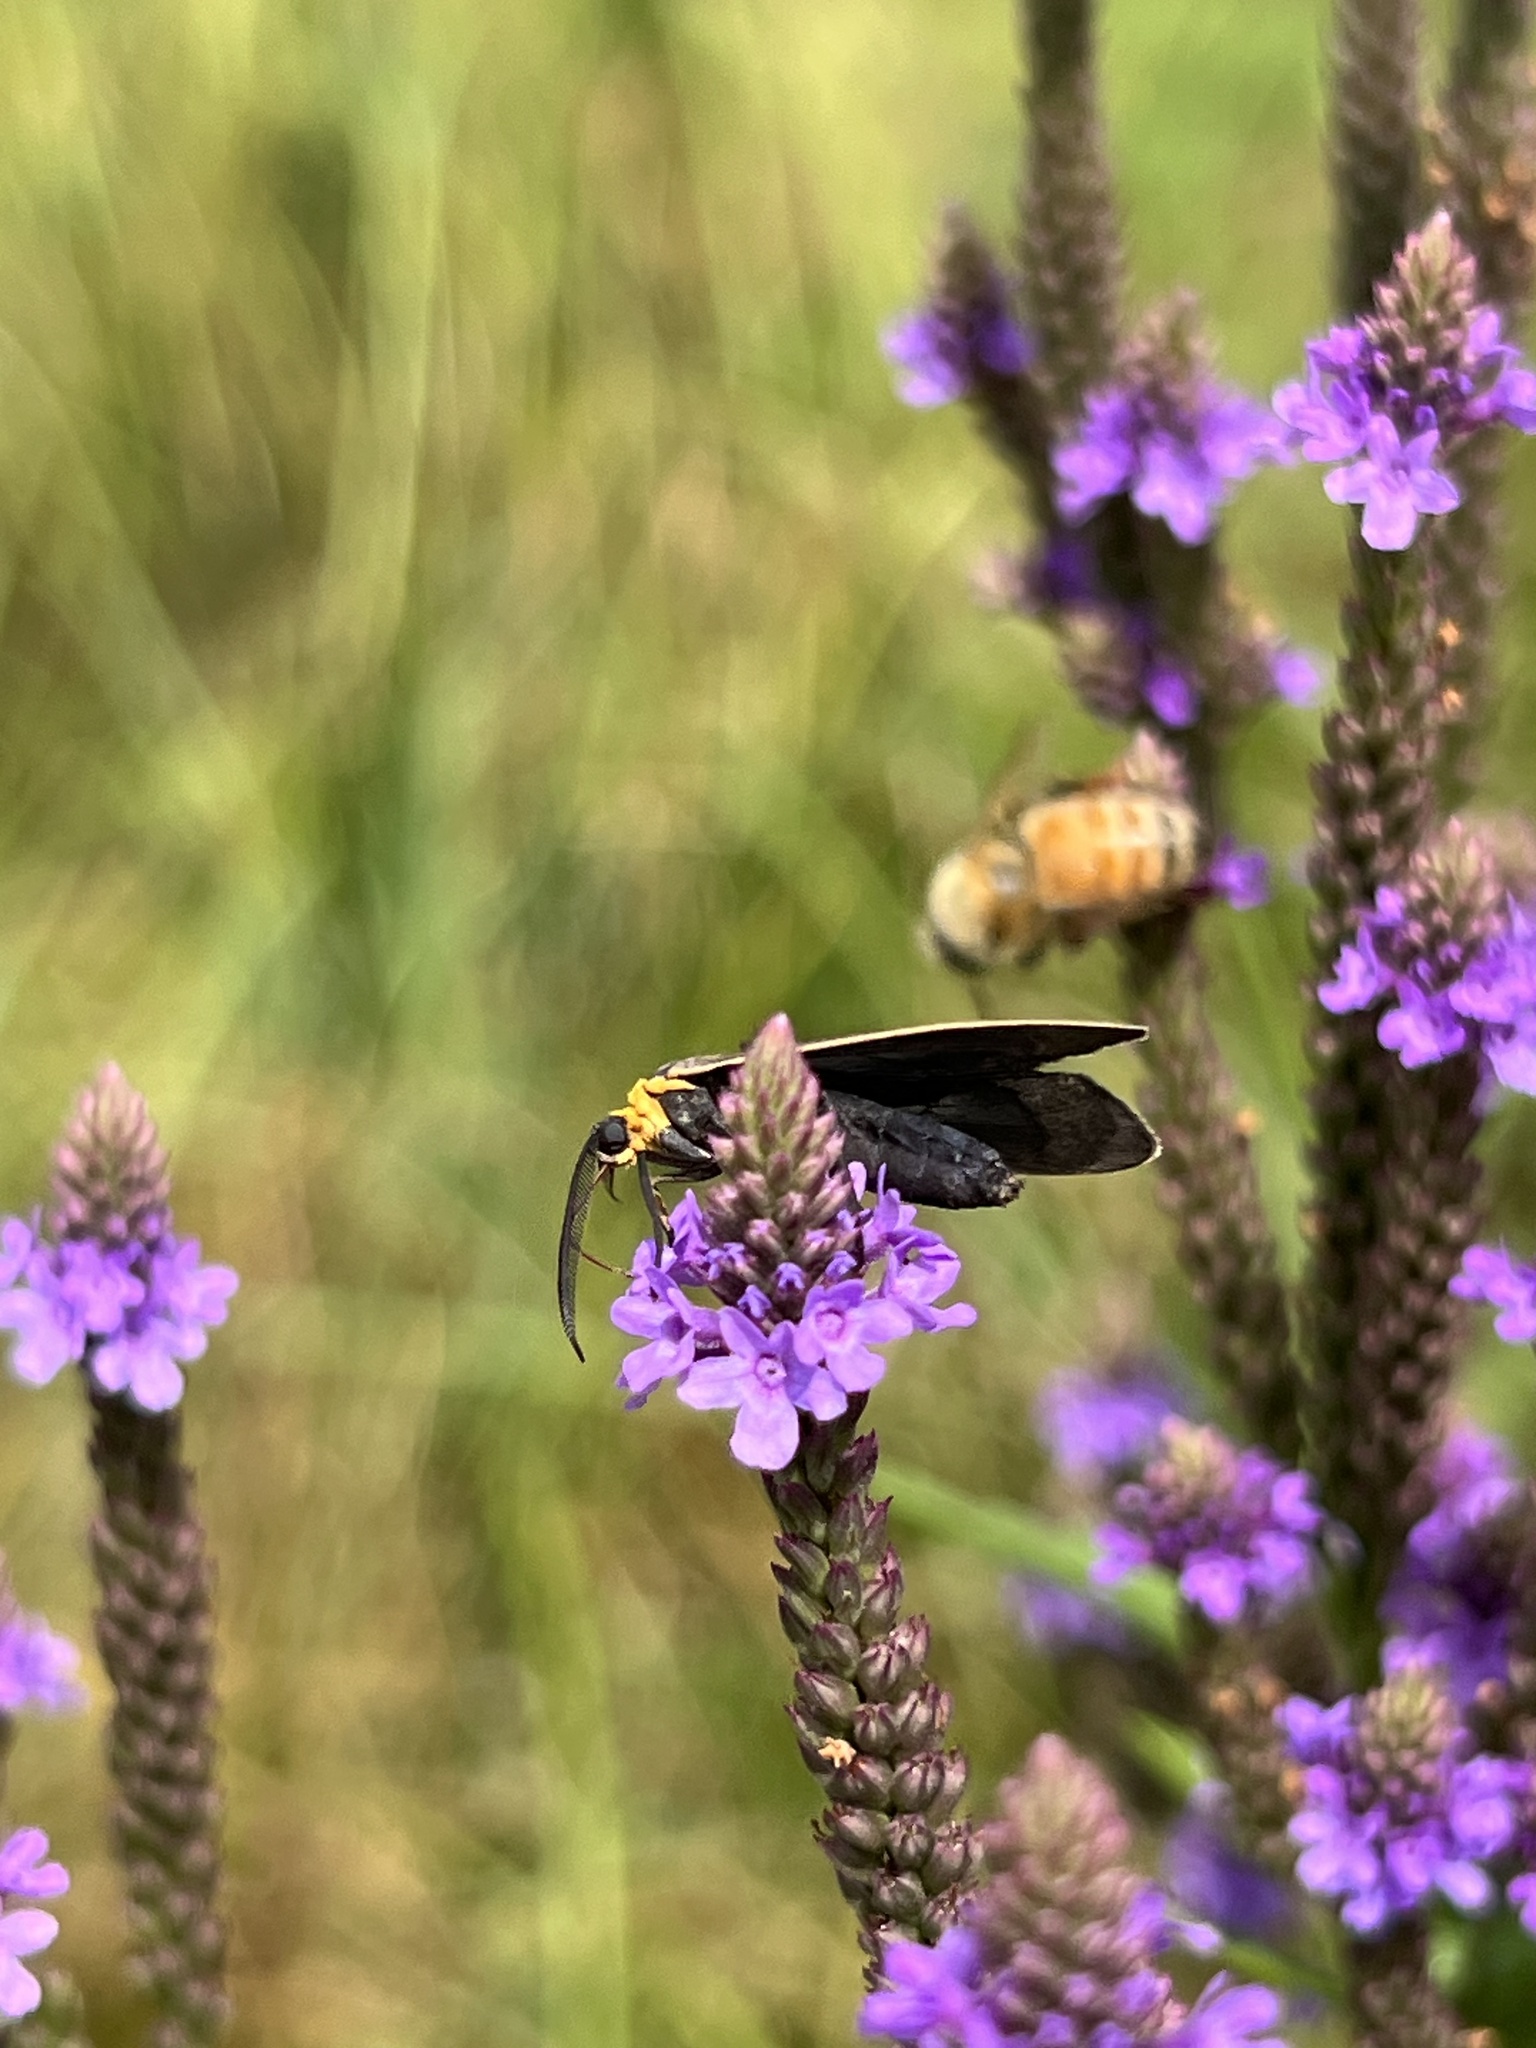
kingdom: Animalia
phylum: Arthropoda
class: Insecta
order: Lepidoptera
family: Erebidae
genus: Cisseps
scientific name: Cisseps fulvicollis
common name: Yellow-collared scape moth
